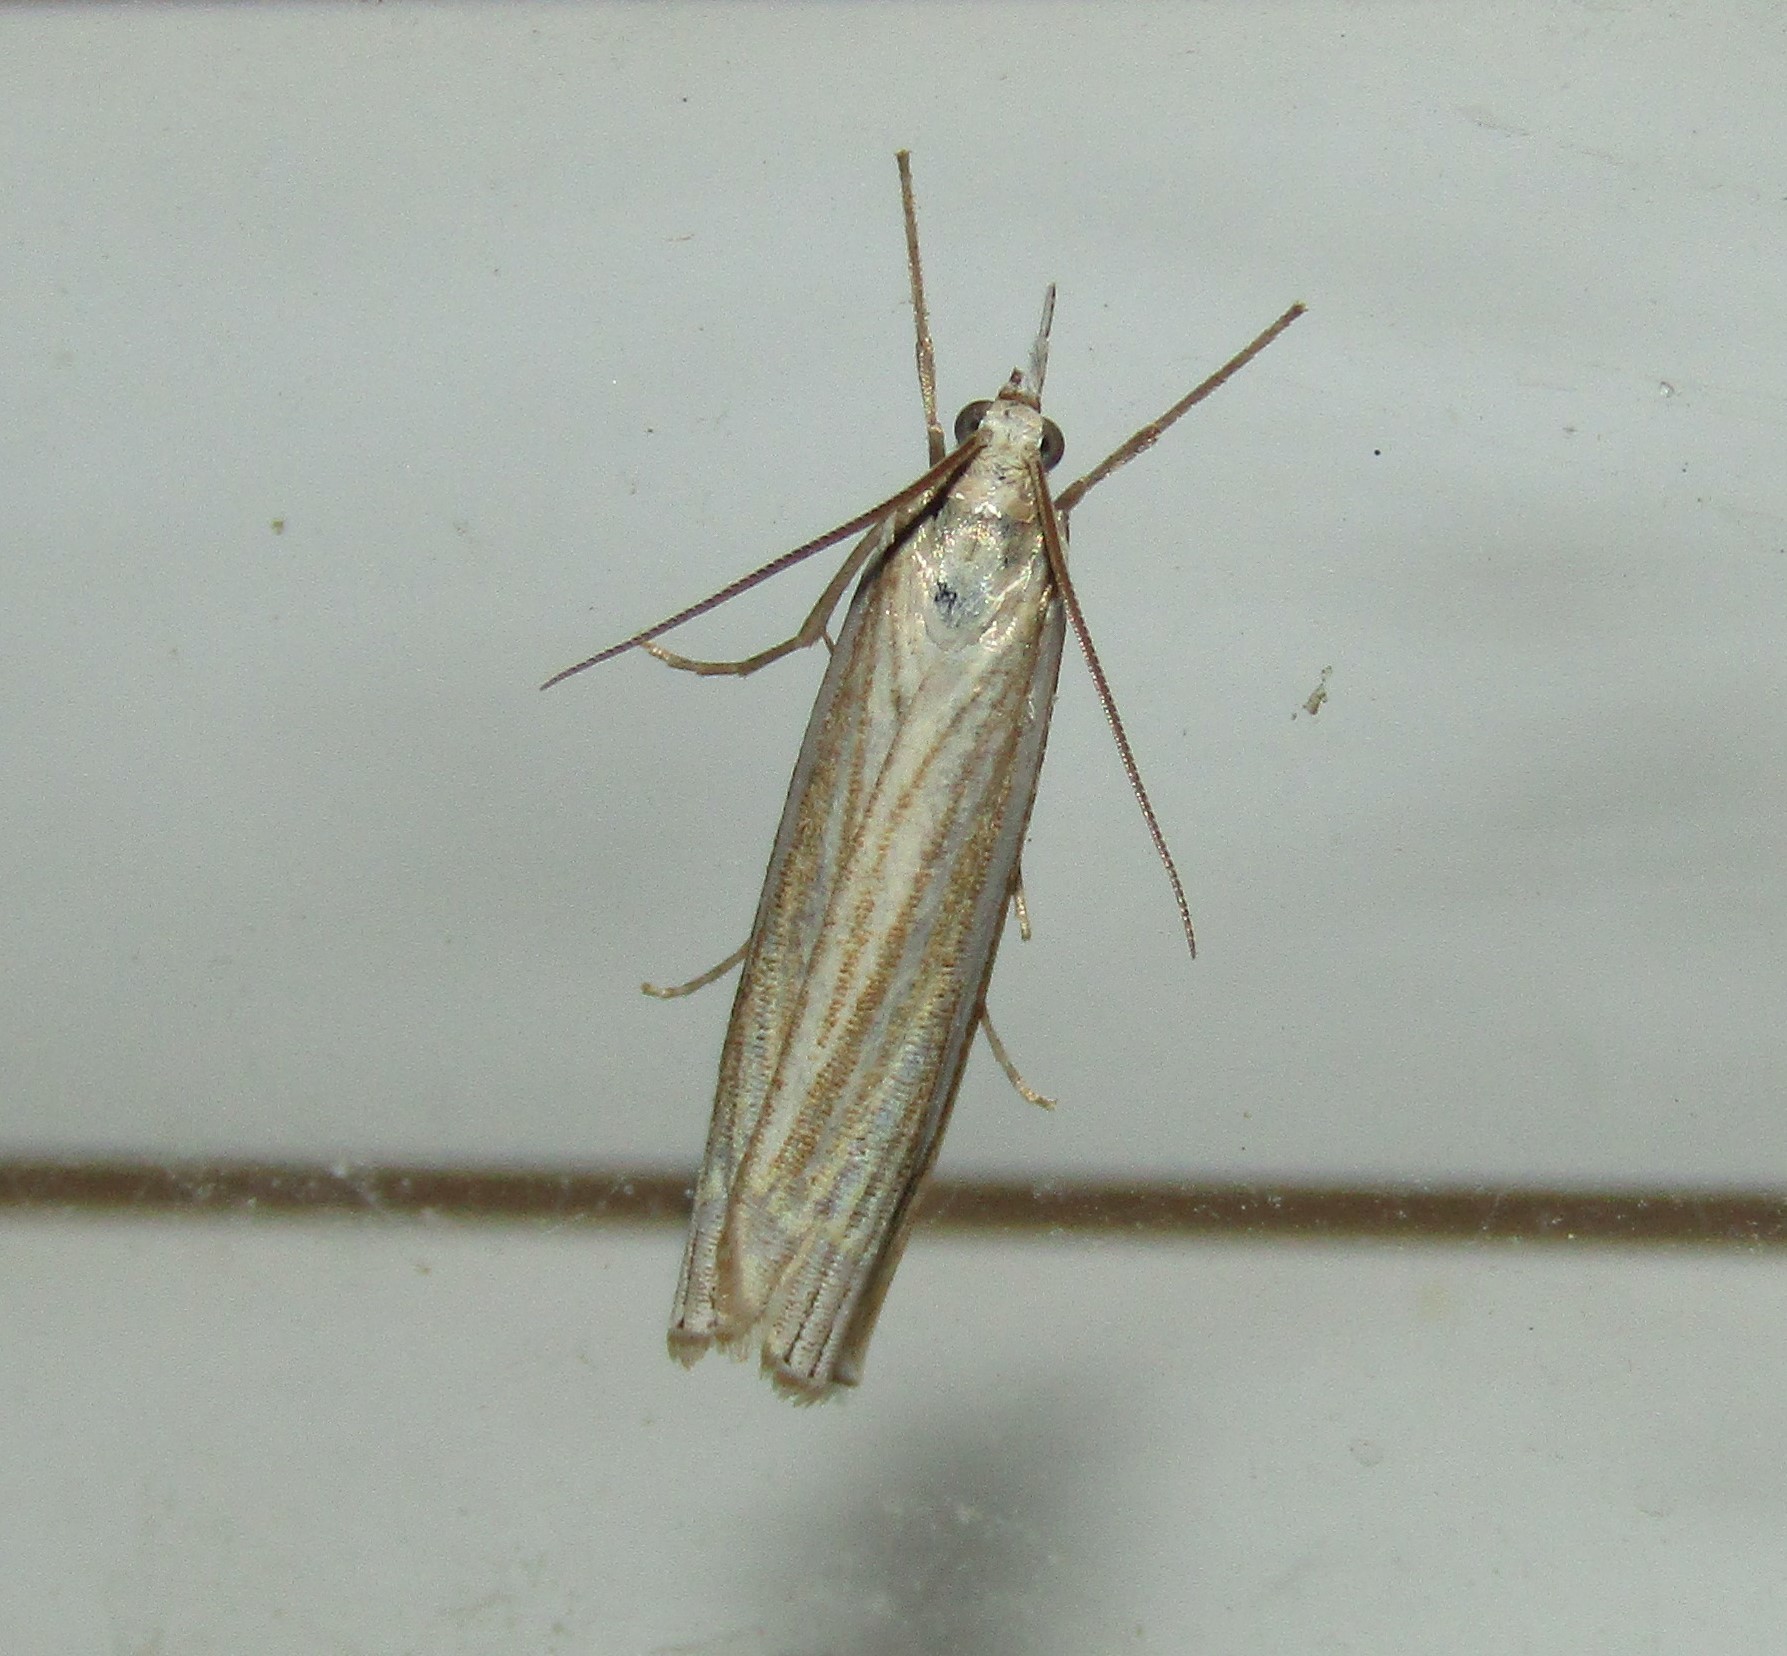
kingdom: Animalia
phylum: Arthropoda
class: Insecta
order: Lepidoptera
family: Crambidae
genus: Crambus
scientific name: Crambus laqueatellus
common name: Eastern grass-veneer
